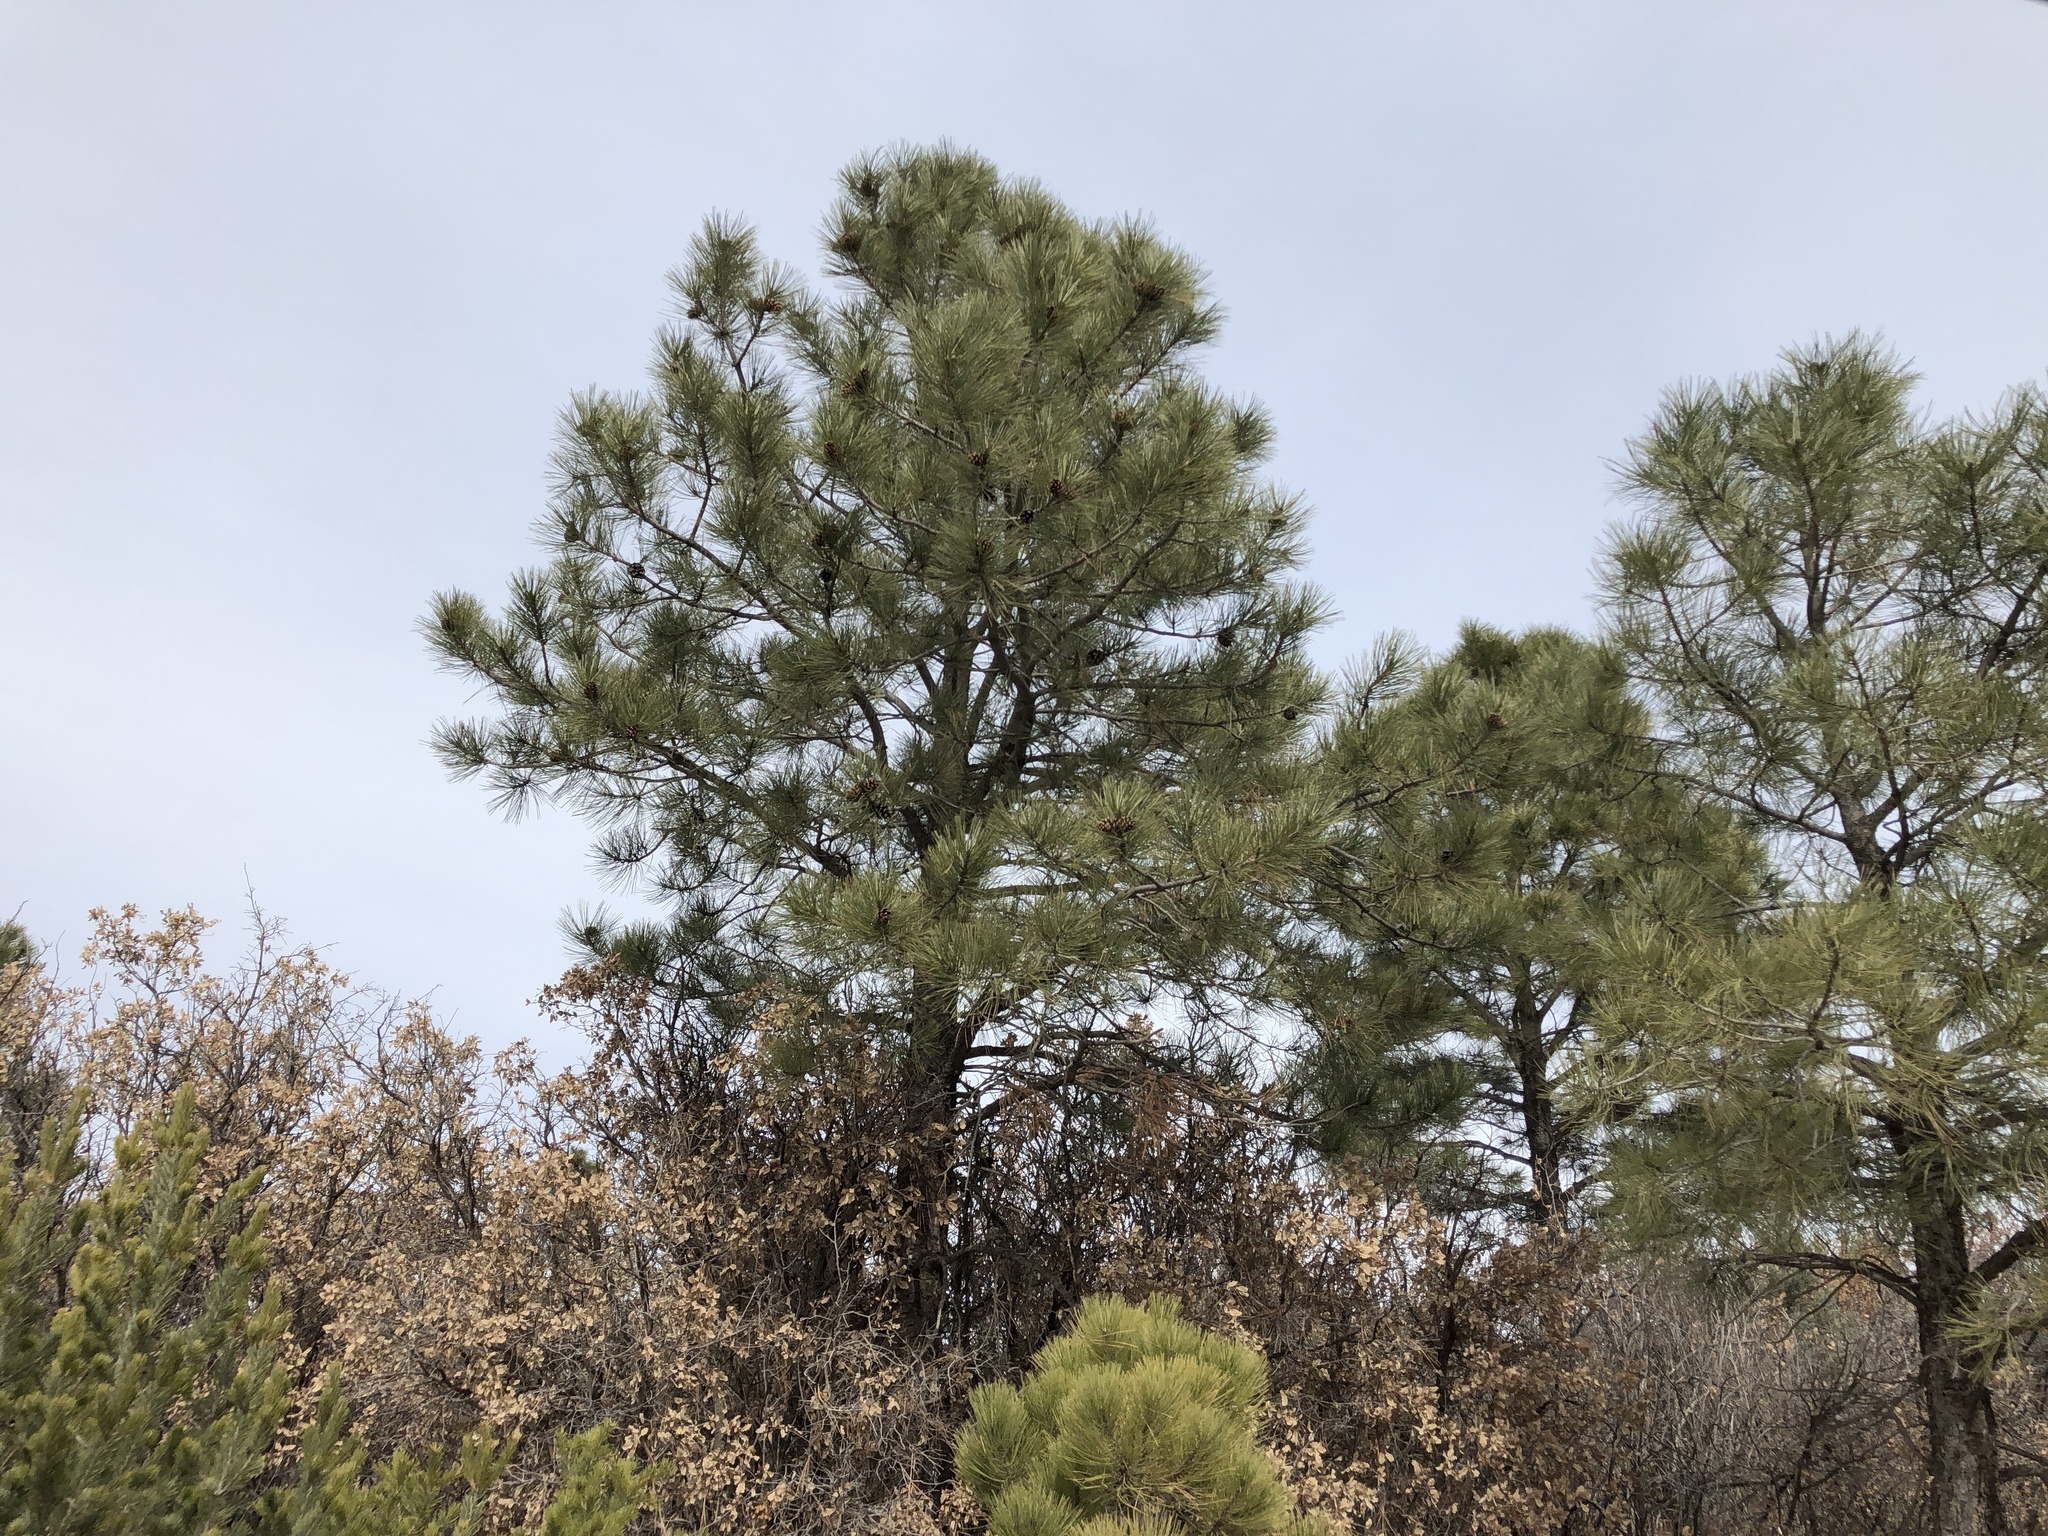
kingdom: Plantae
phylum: Tracheophyta
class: Pinopsida
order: Pinales
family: Pinaceae
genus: Pinus
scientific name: Pinus ponderosa
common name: Western yellow-pine
